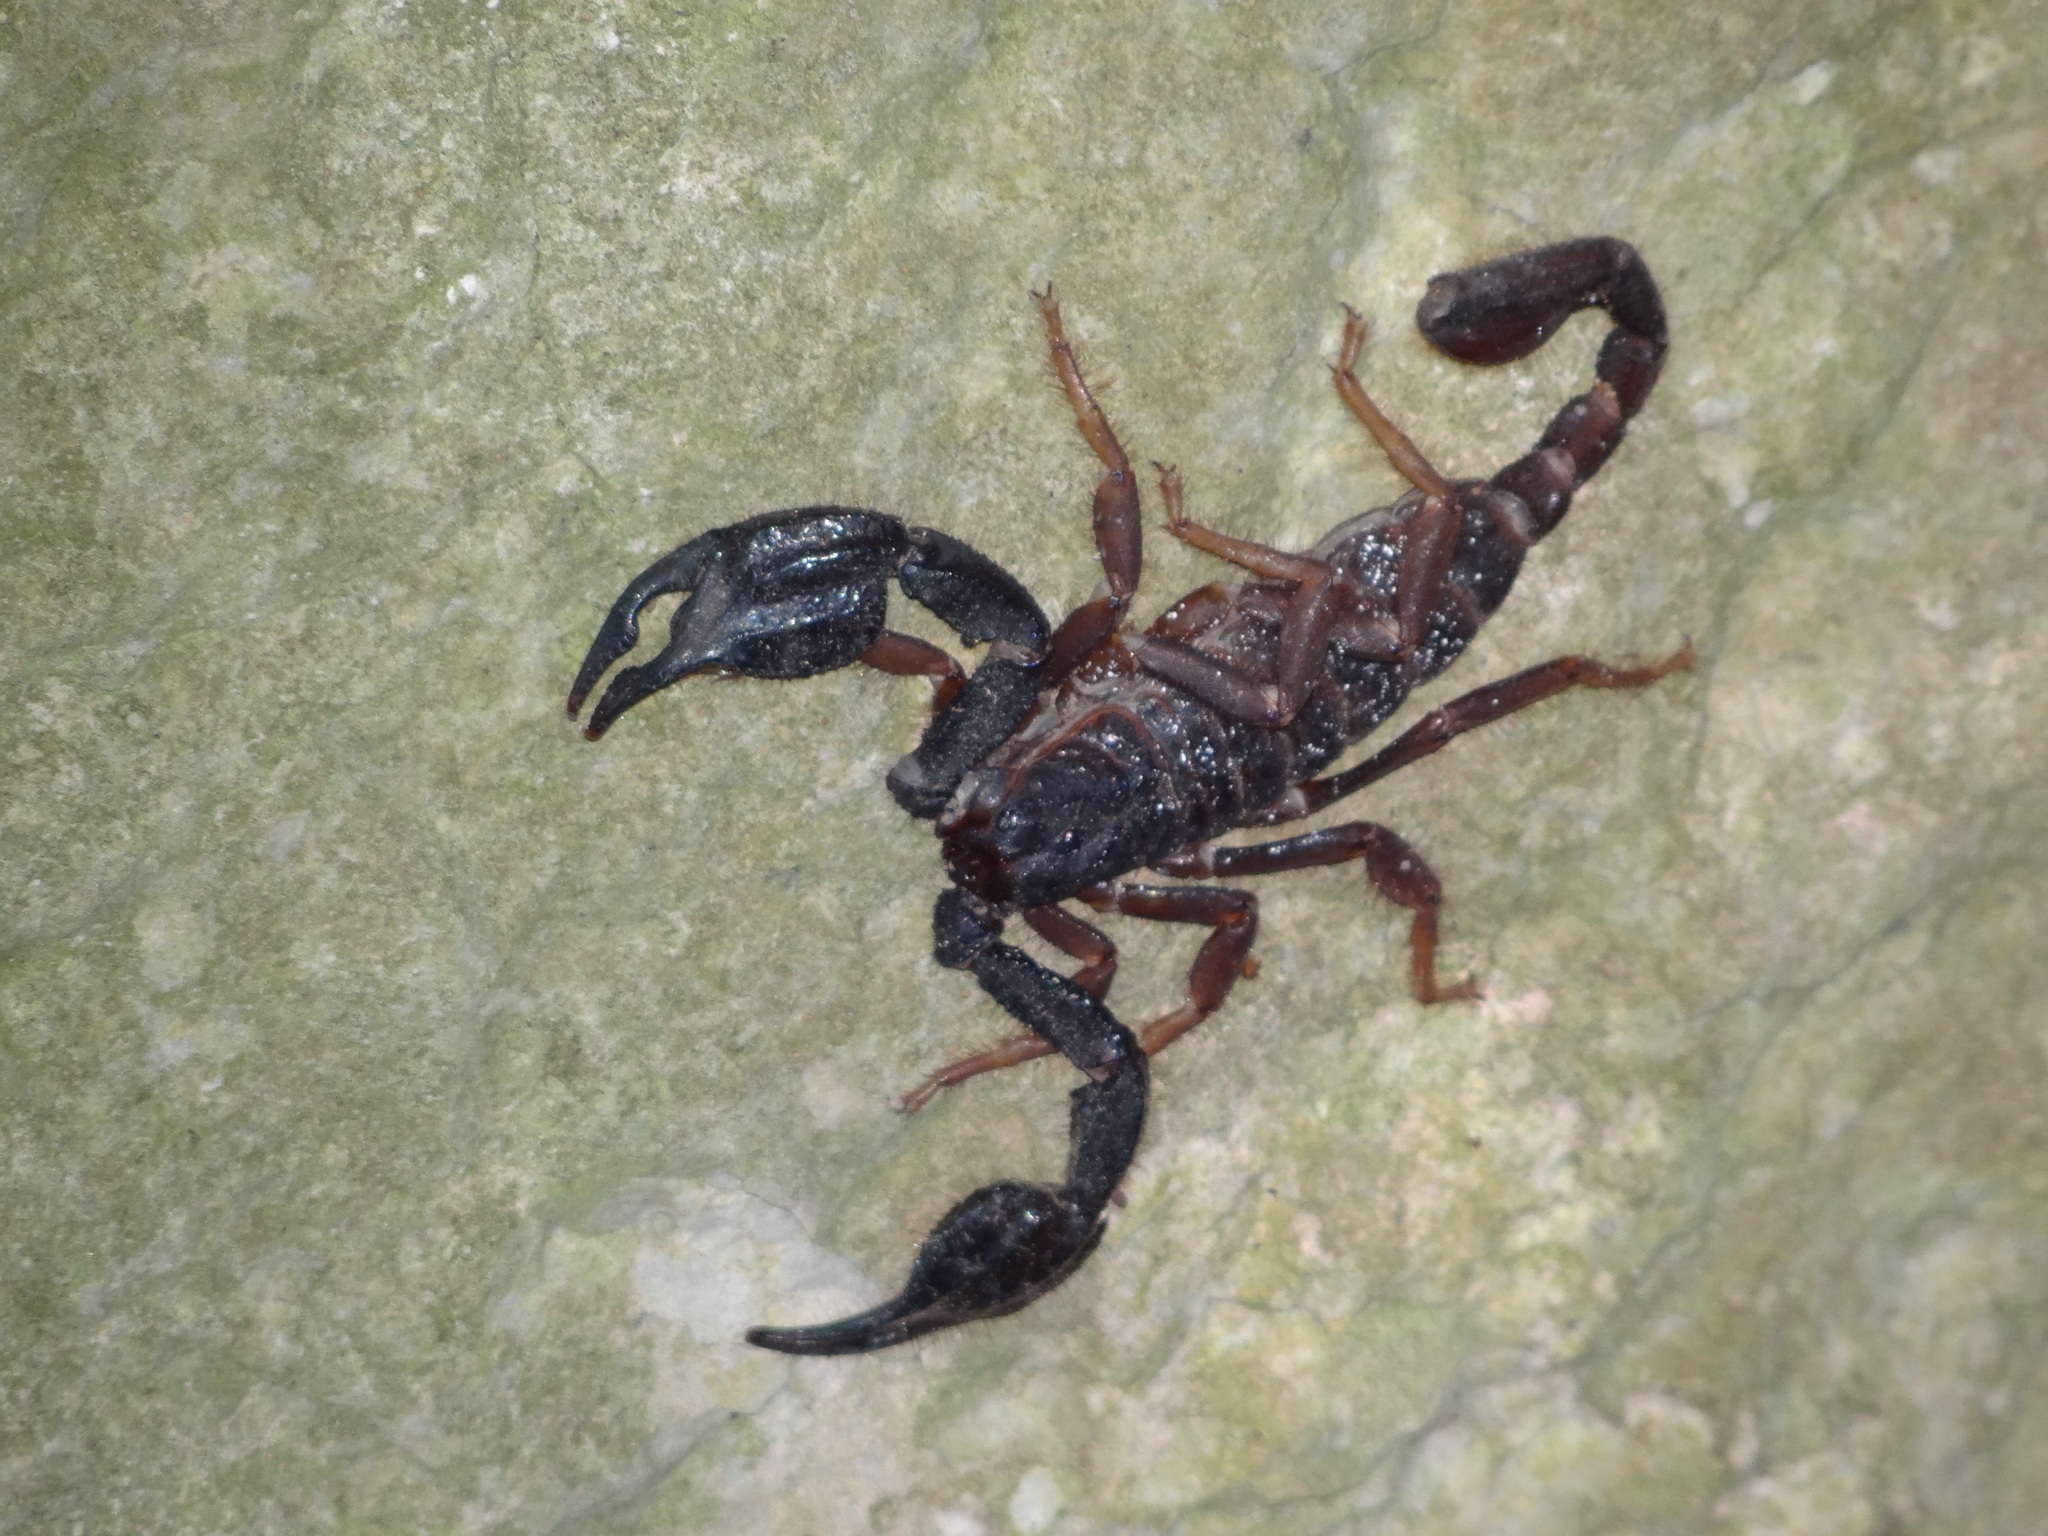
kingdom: Animalia
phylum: Arthropoda
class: Arachnida
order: Scorpiones
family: Iuridae
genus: Anatoliurus
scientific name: Anatoliurus kraepelini
